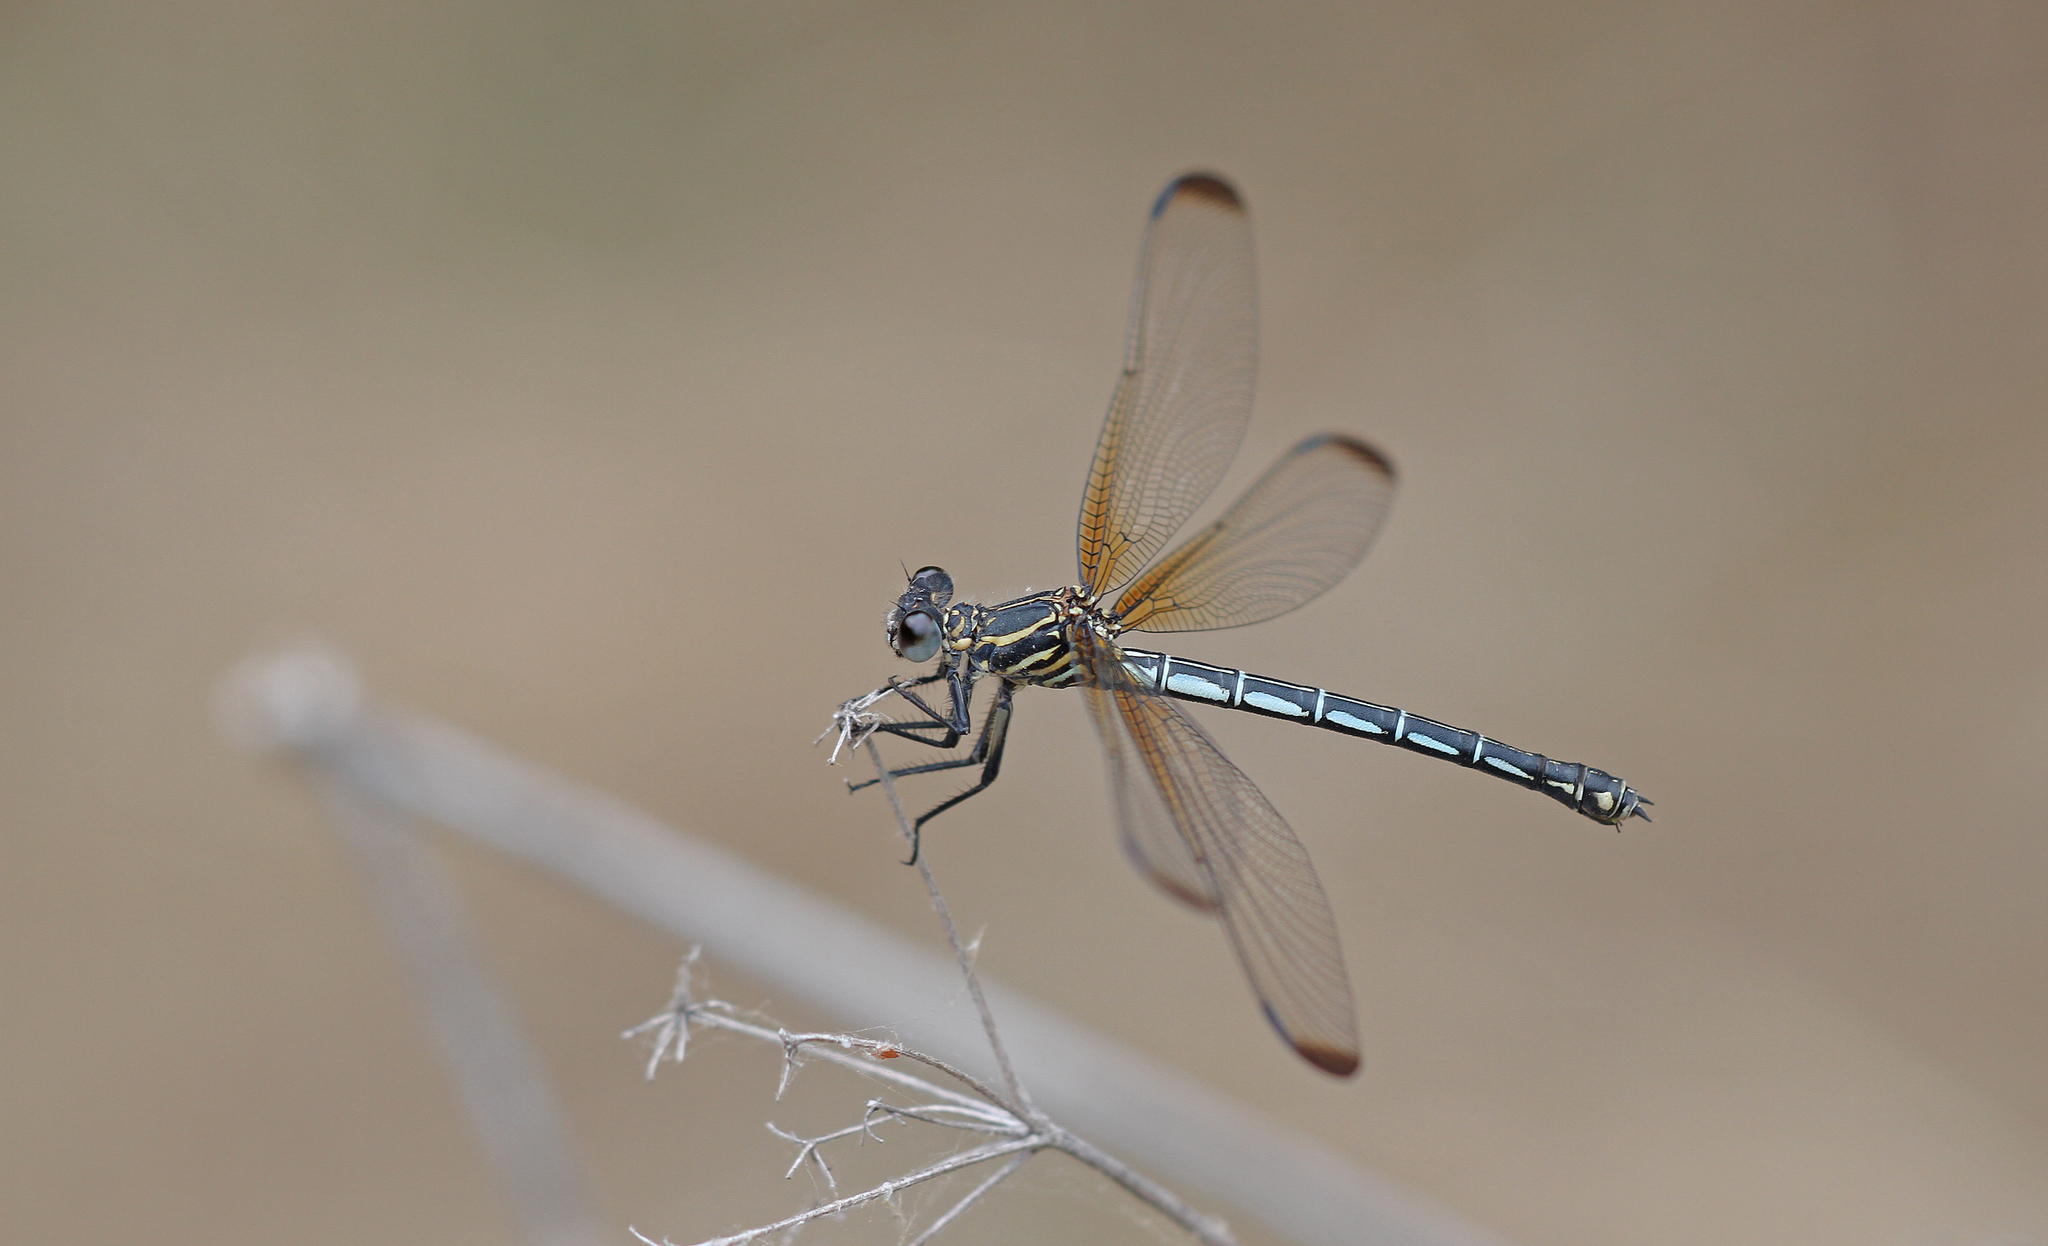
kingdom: Animalia
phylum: Arthropoda
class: Insecta
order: Odonata
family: Euphaeidae
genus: Epallage
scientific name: Epallage fatime
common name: Odalisque
